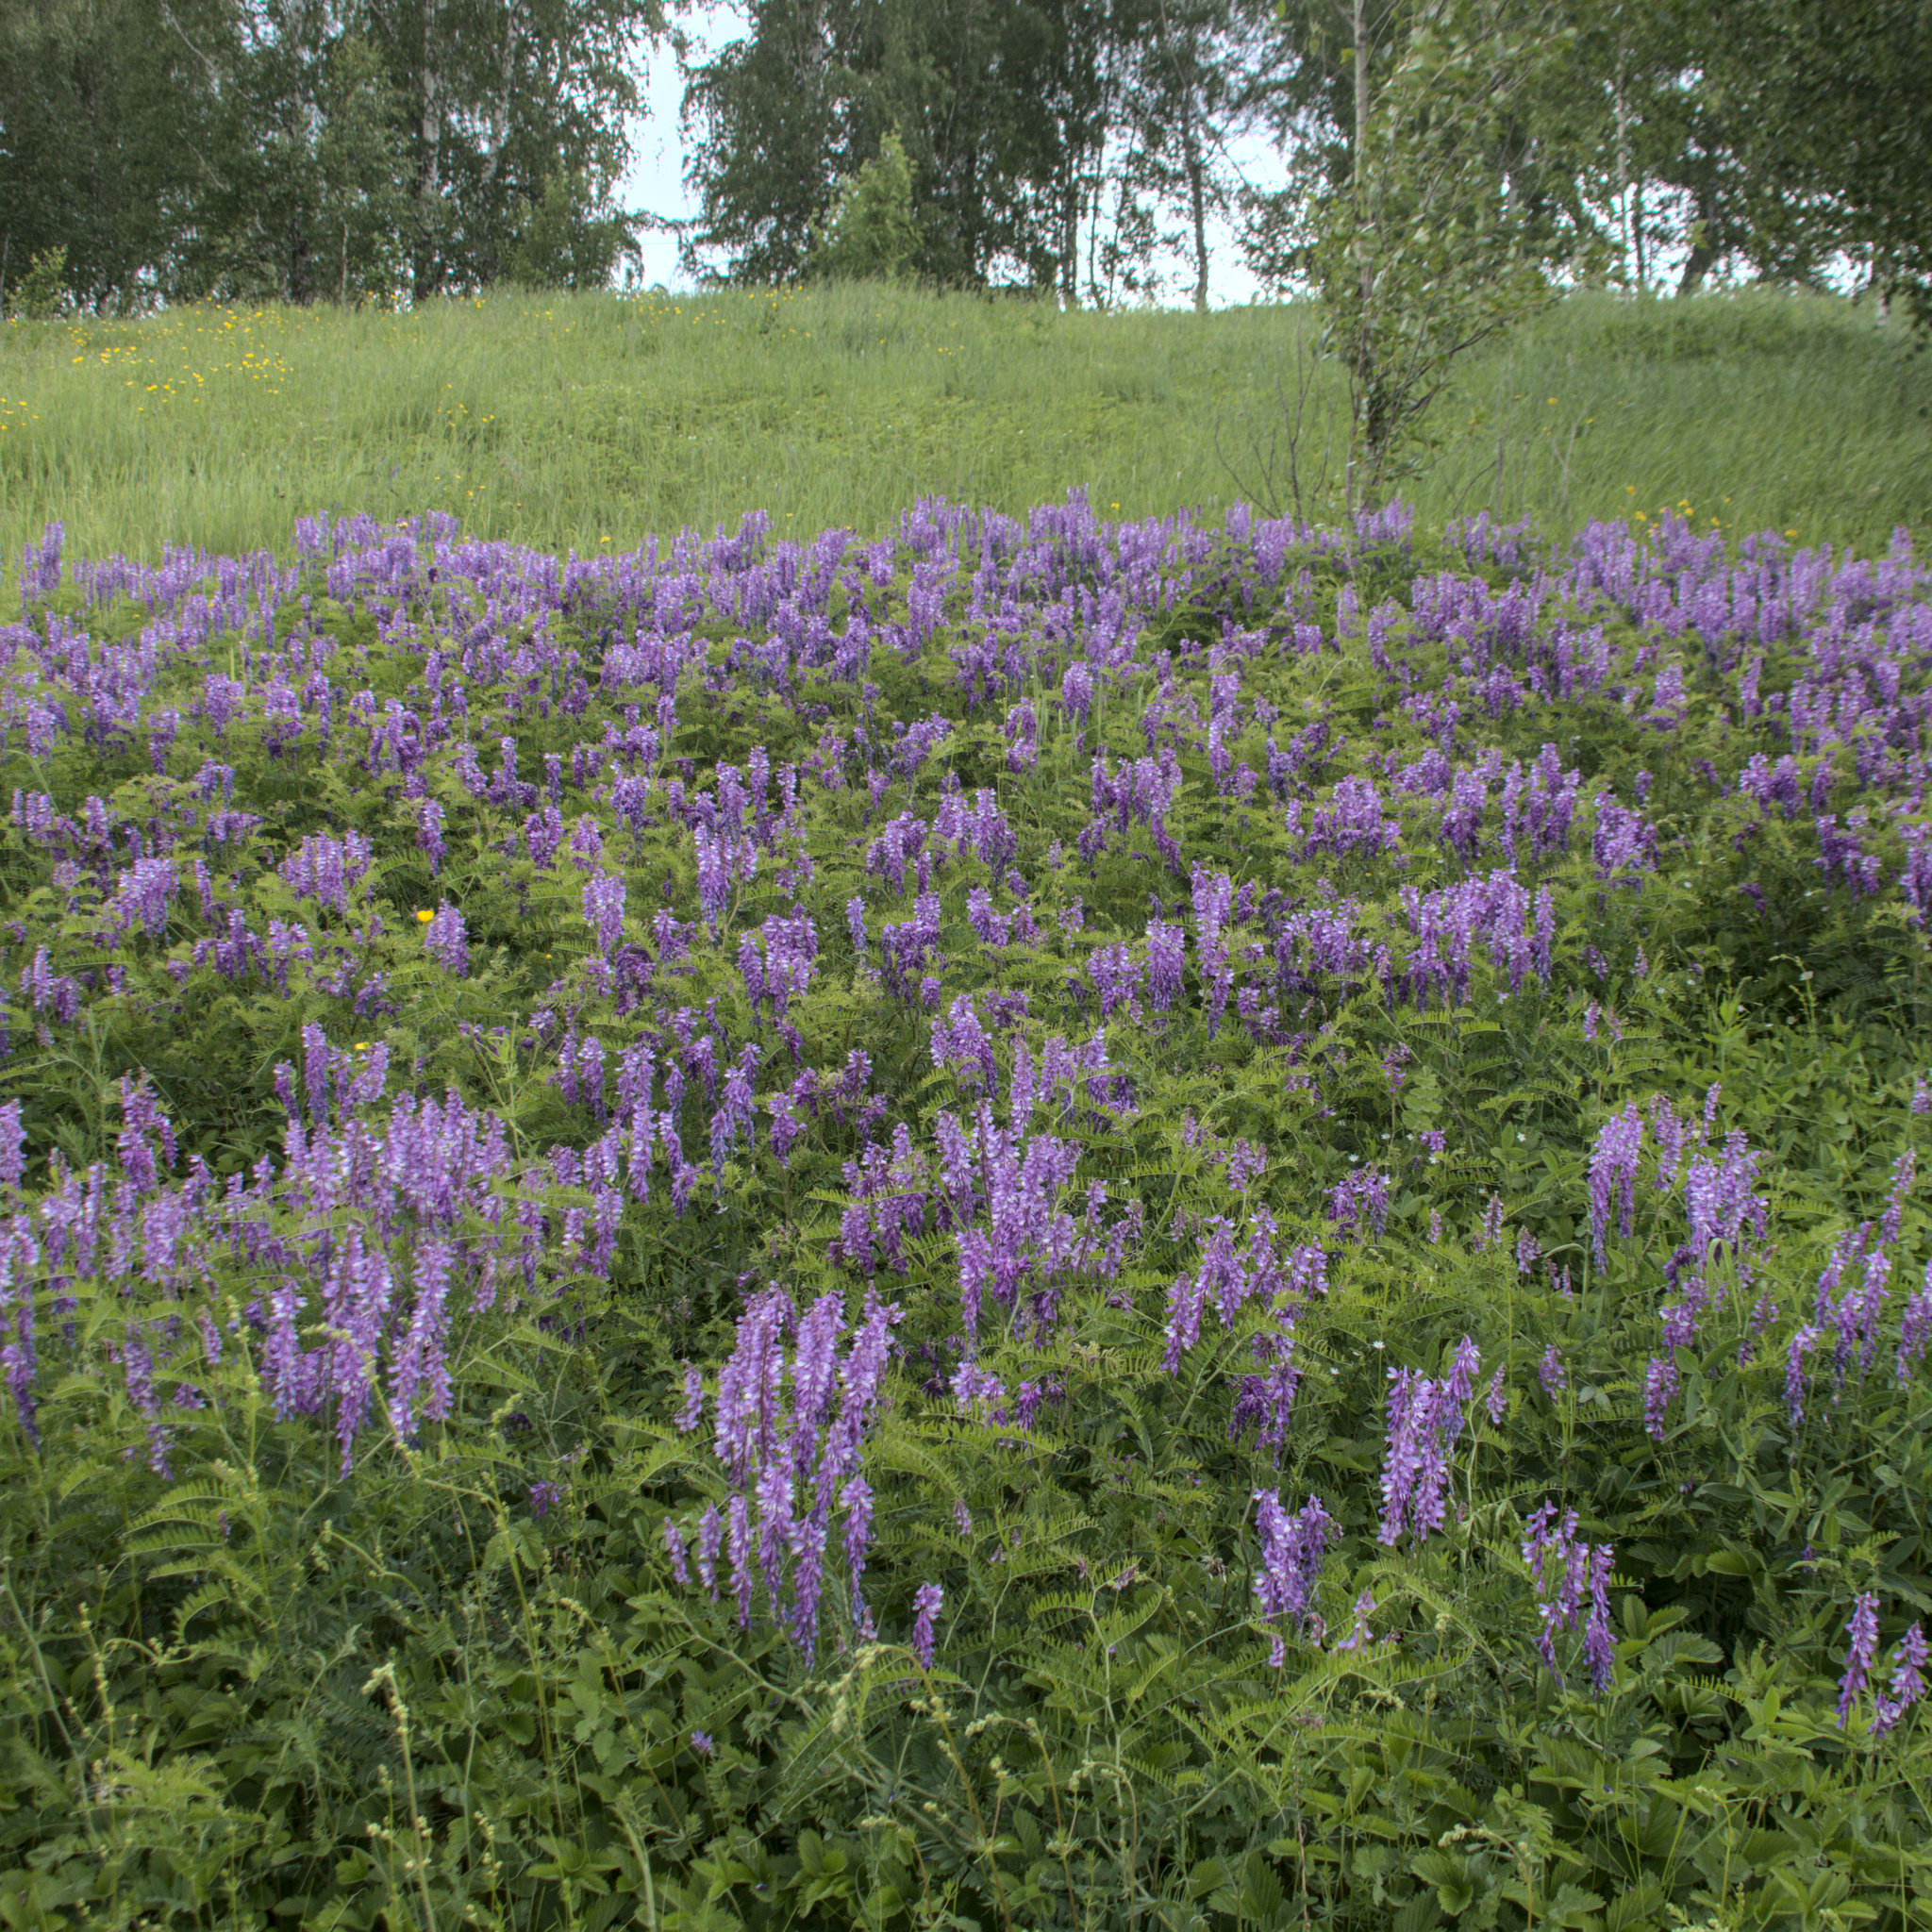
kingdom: Plantae
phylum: Tracheophyta
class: Magnoliopsida
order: Fabales
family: Fabaceae
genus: Vicia
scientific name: Vicia tenuifolia
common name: Fine-leaved vetch
